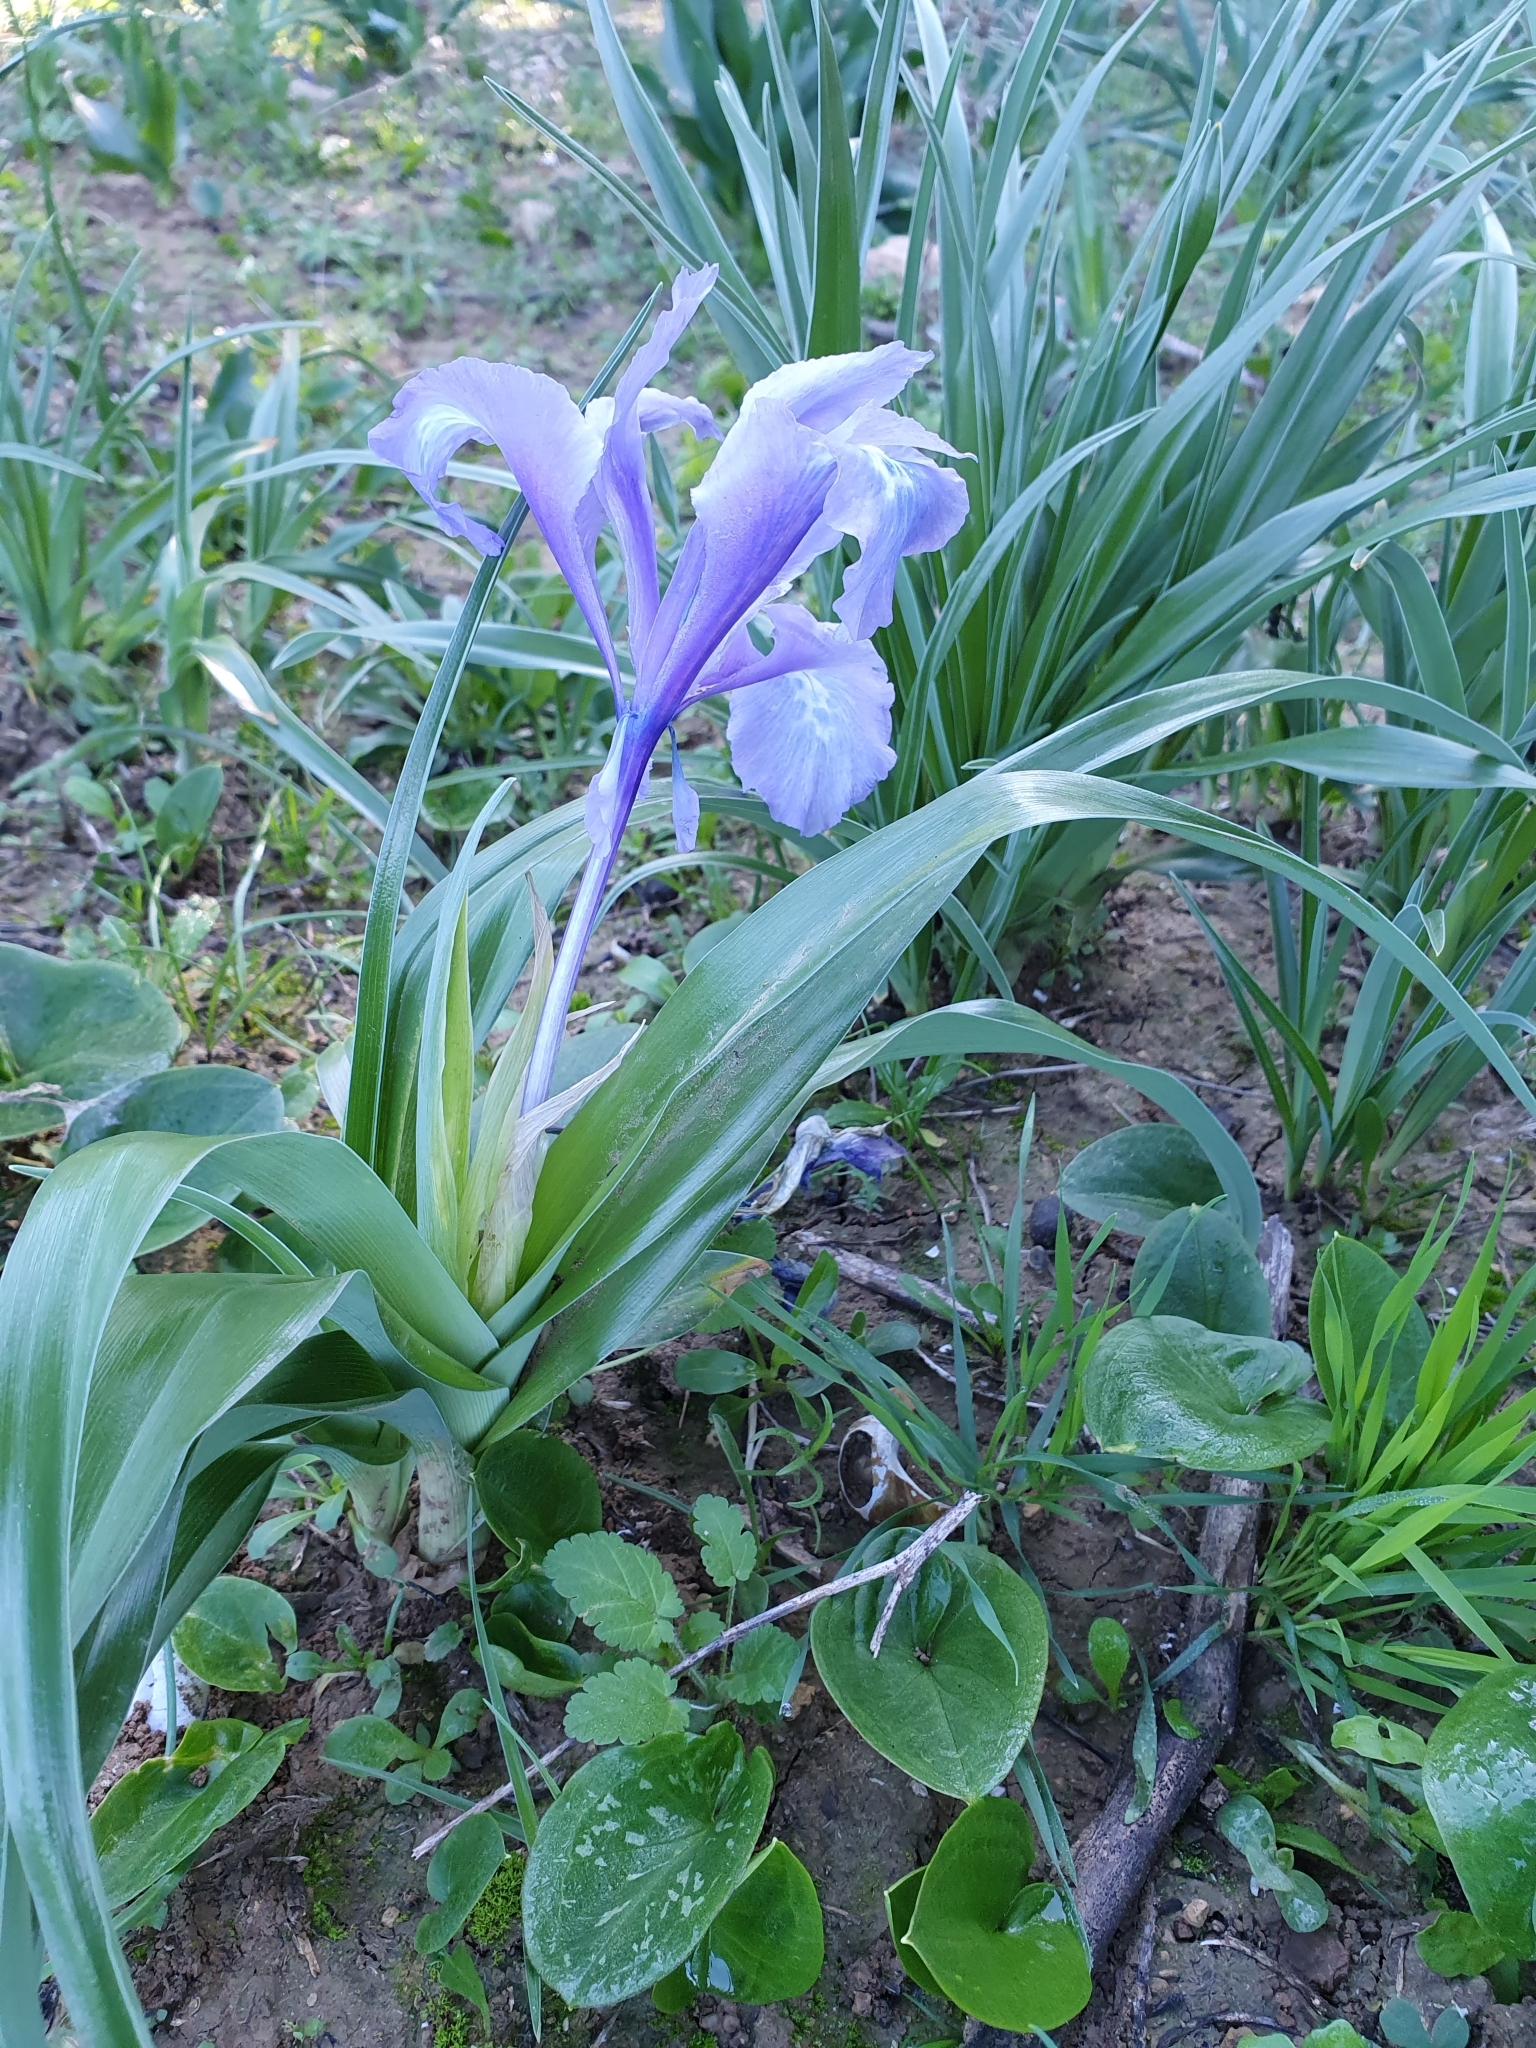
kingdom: Plantae
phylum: Tracheophyta
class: Liliopsida
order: Asparagales
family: Iridaceae
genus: Iris
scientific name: Iris planifolia
